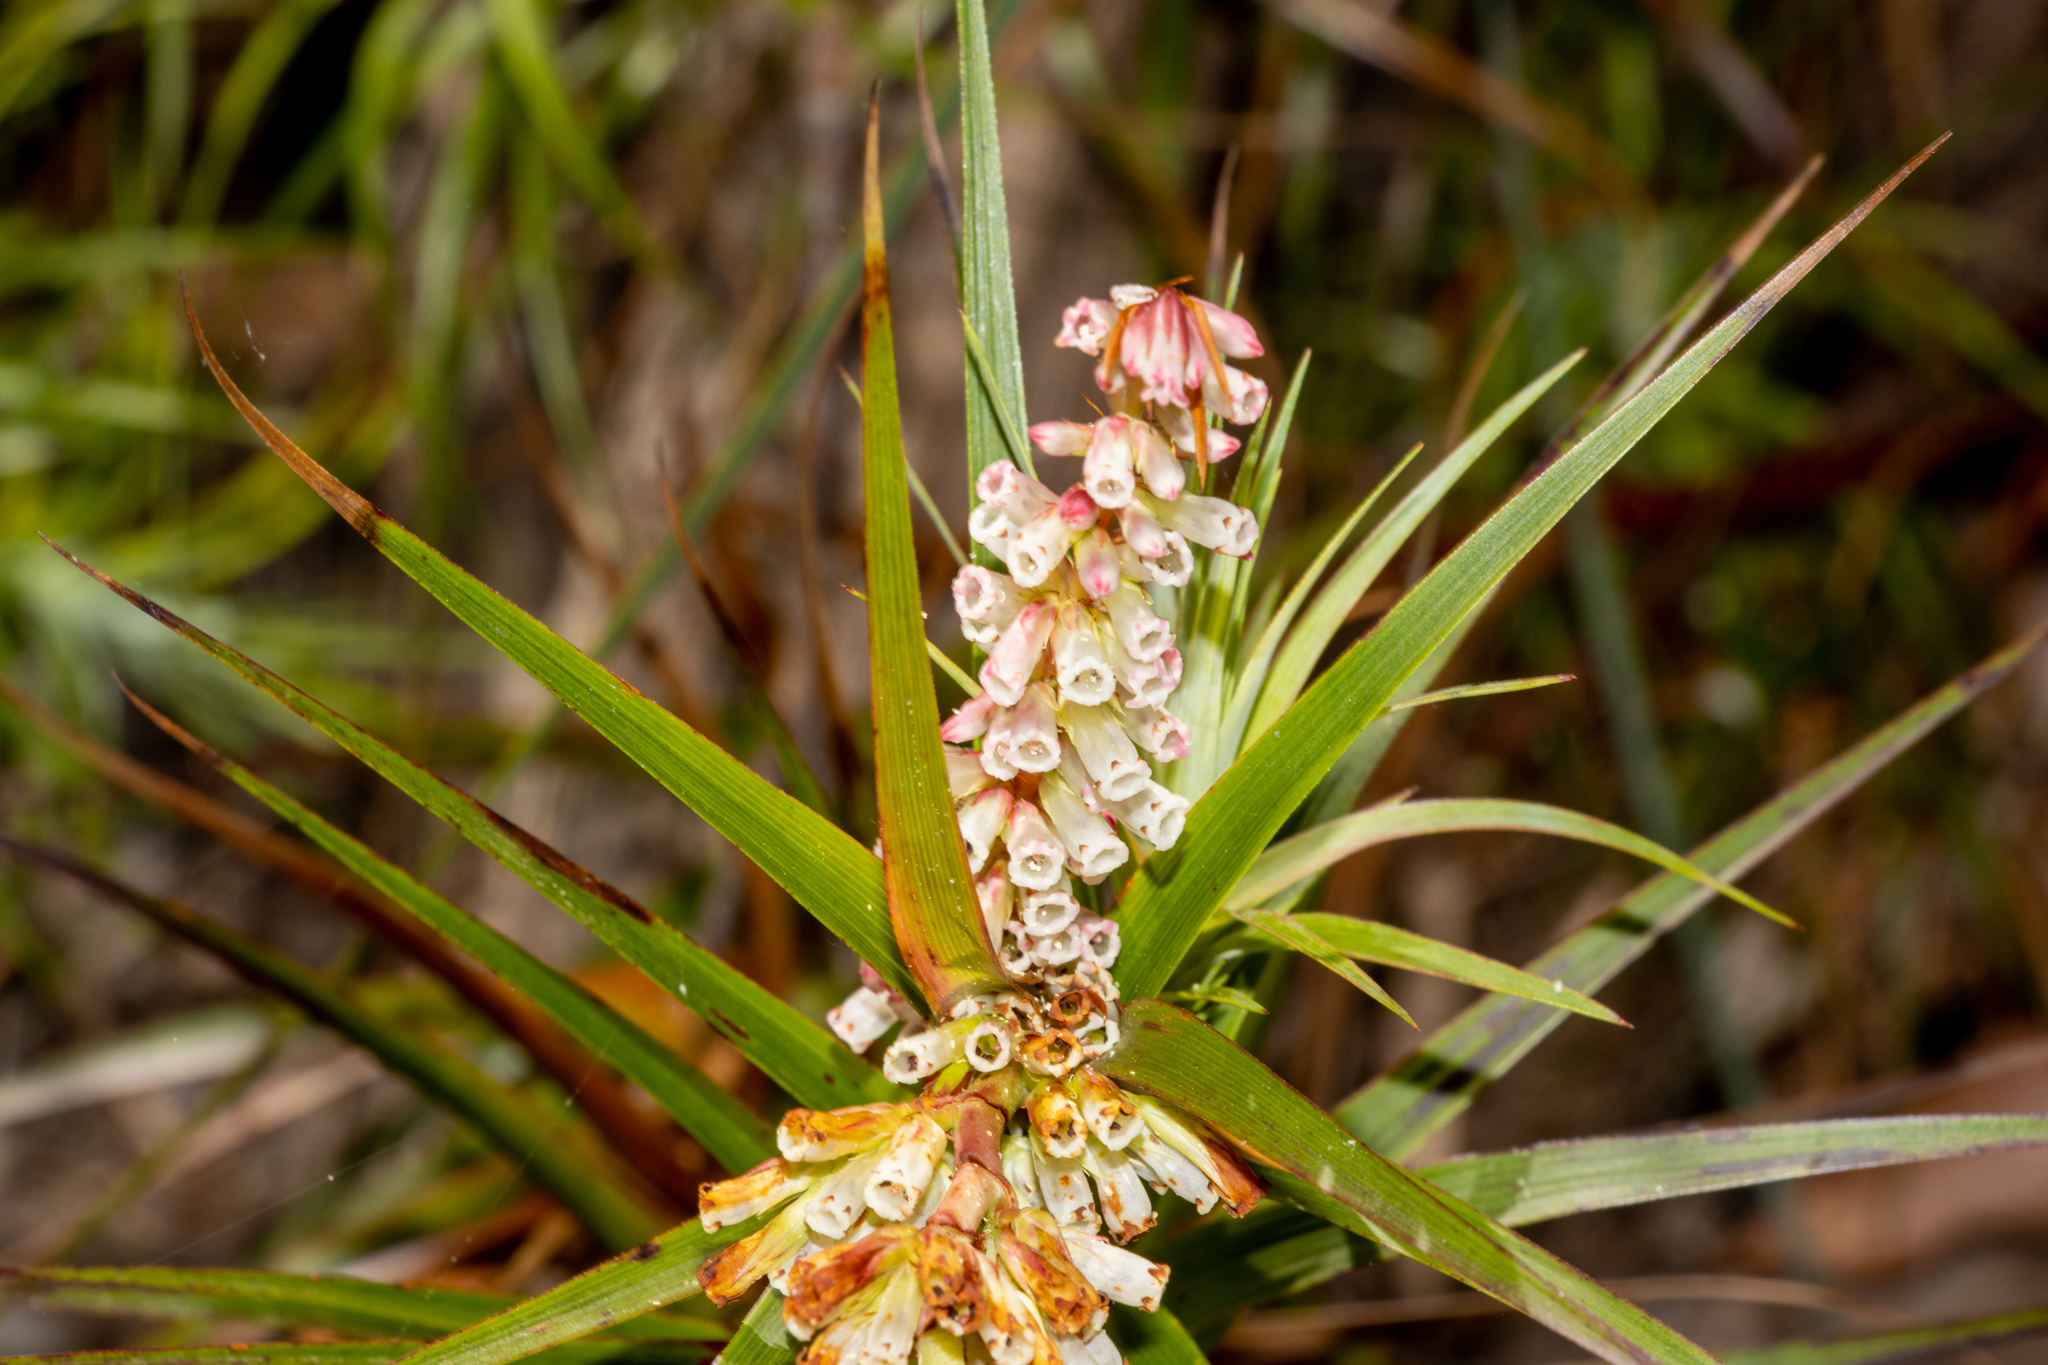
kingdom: Plantae
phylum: Tracheophyta
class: Magnoliopsida
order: Ericales
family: Ericaceae
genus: Dracophyllum
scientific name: Dracophyllum secundum
